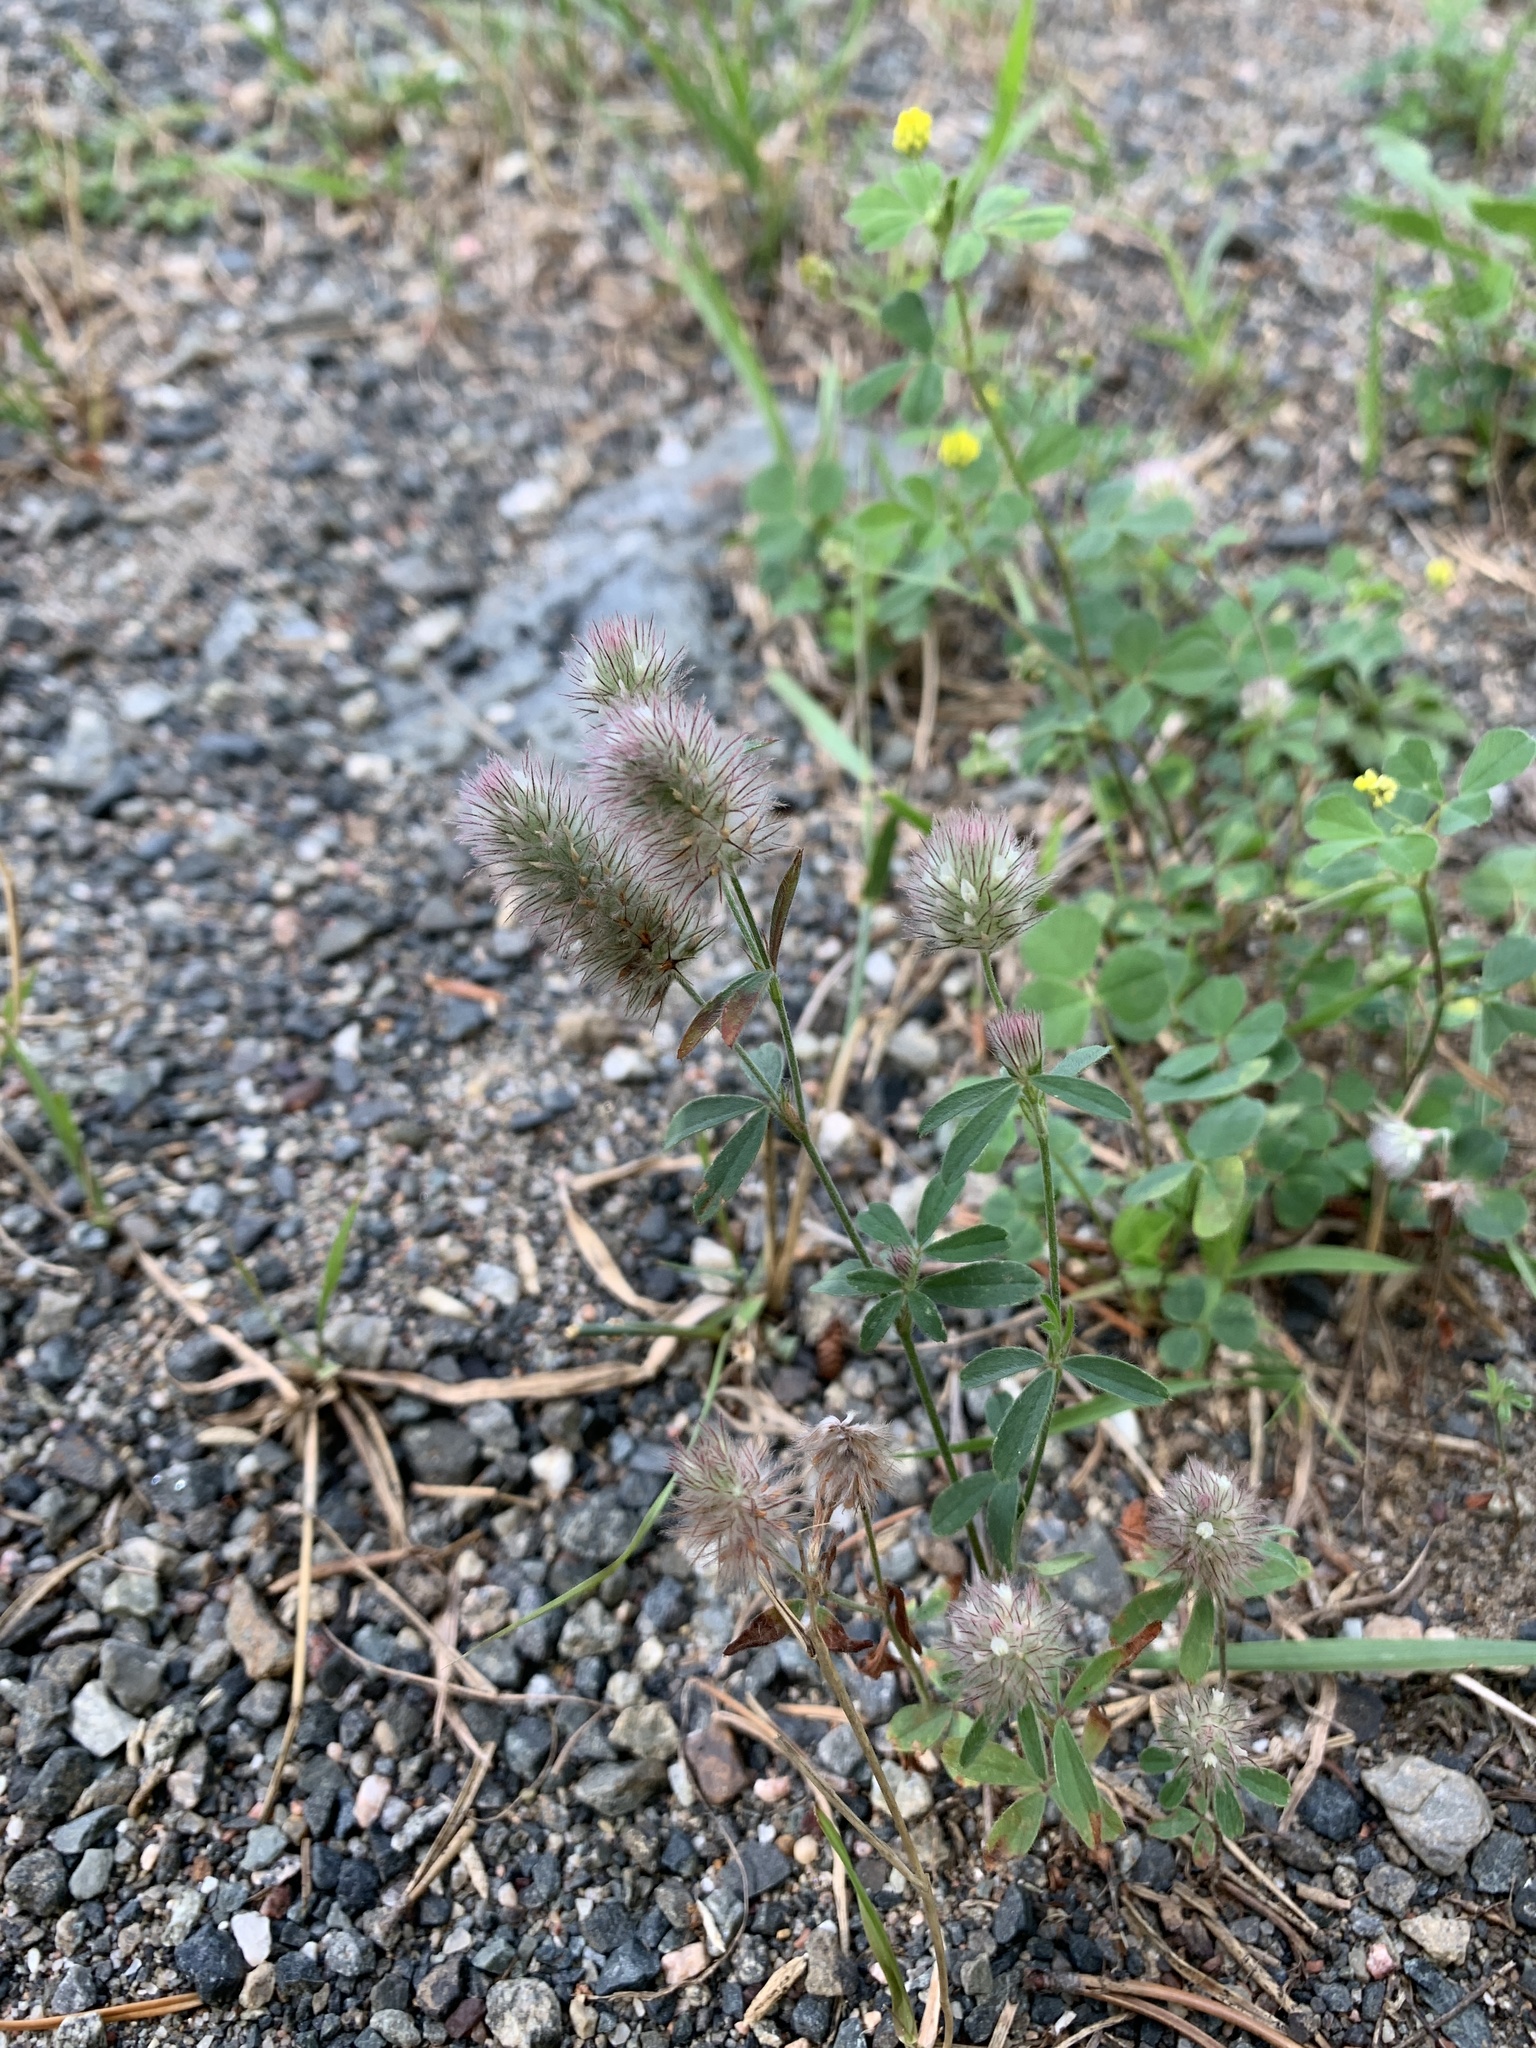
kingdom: Plantae
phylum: Tracheophyta
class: Magnoliopsida
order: Fabales
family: Fabaceae
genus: Trifolium
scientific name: Trifolium arvense
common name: Hare's-foot clover
